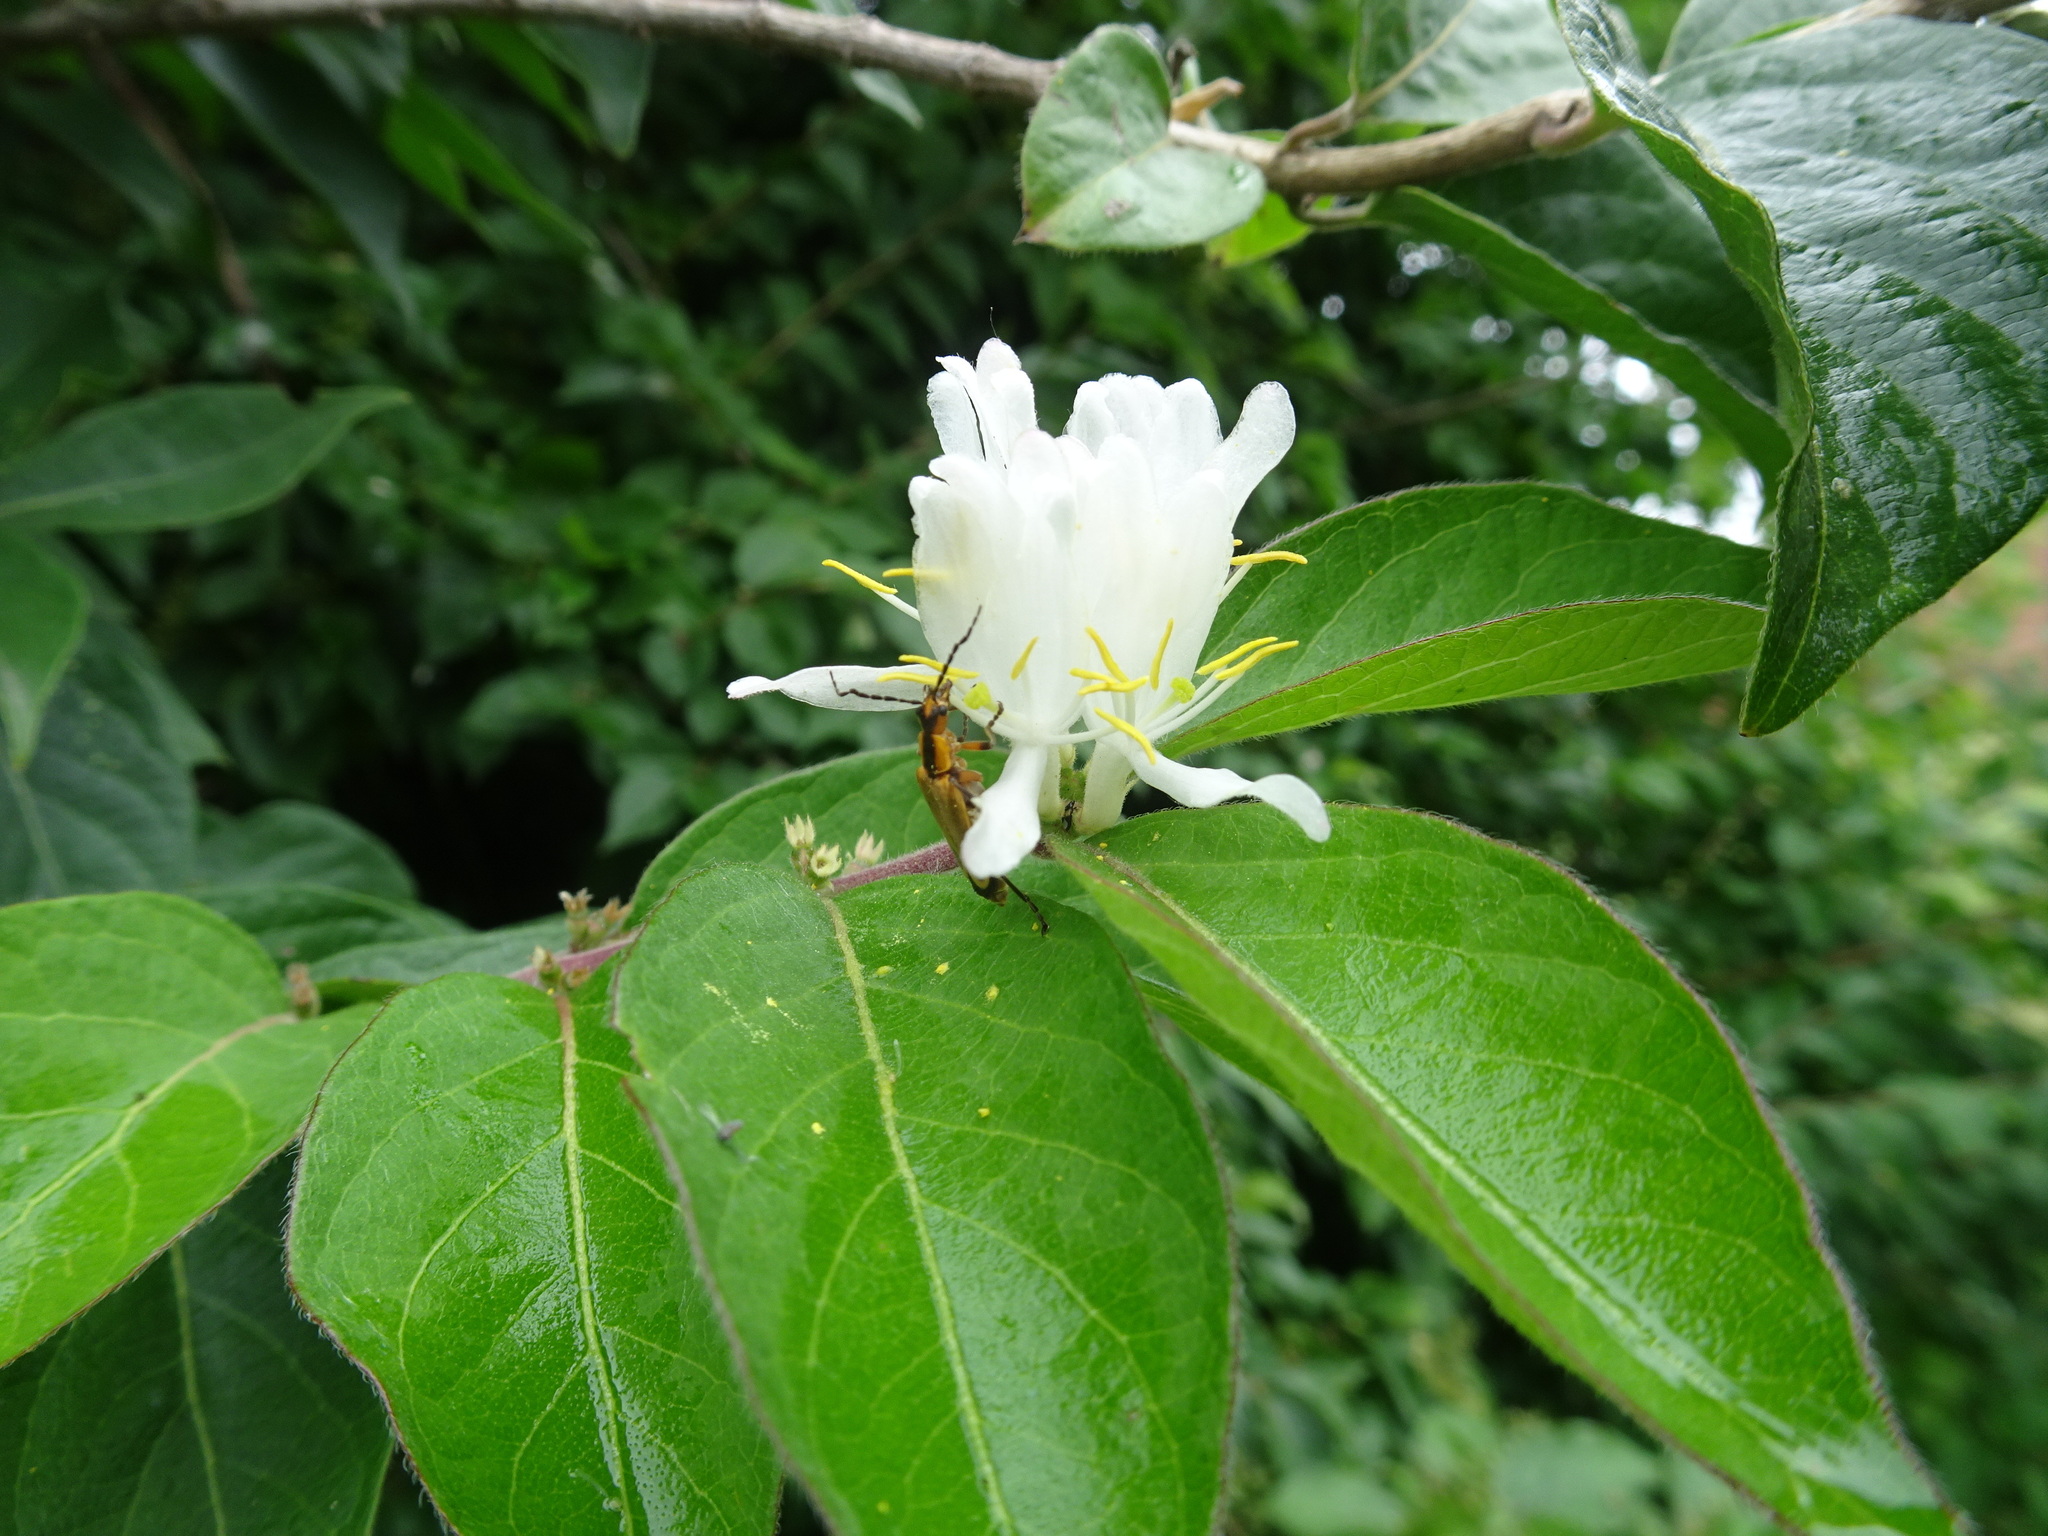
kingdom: Plantae
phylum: Tracheophyta
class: Magnoliopsida
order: Dipsacales
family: Caprifoliaceae
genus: Lonicera
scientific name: Lonicera maackii
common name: Amur honeysuckle
